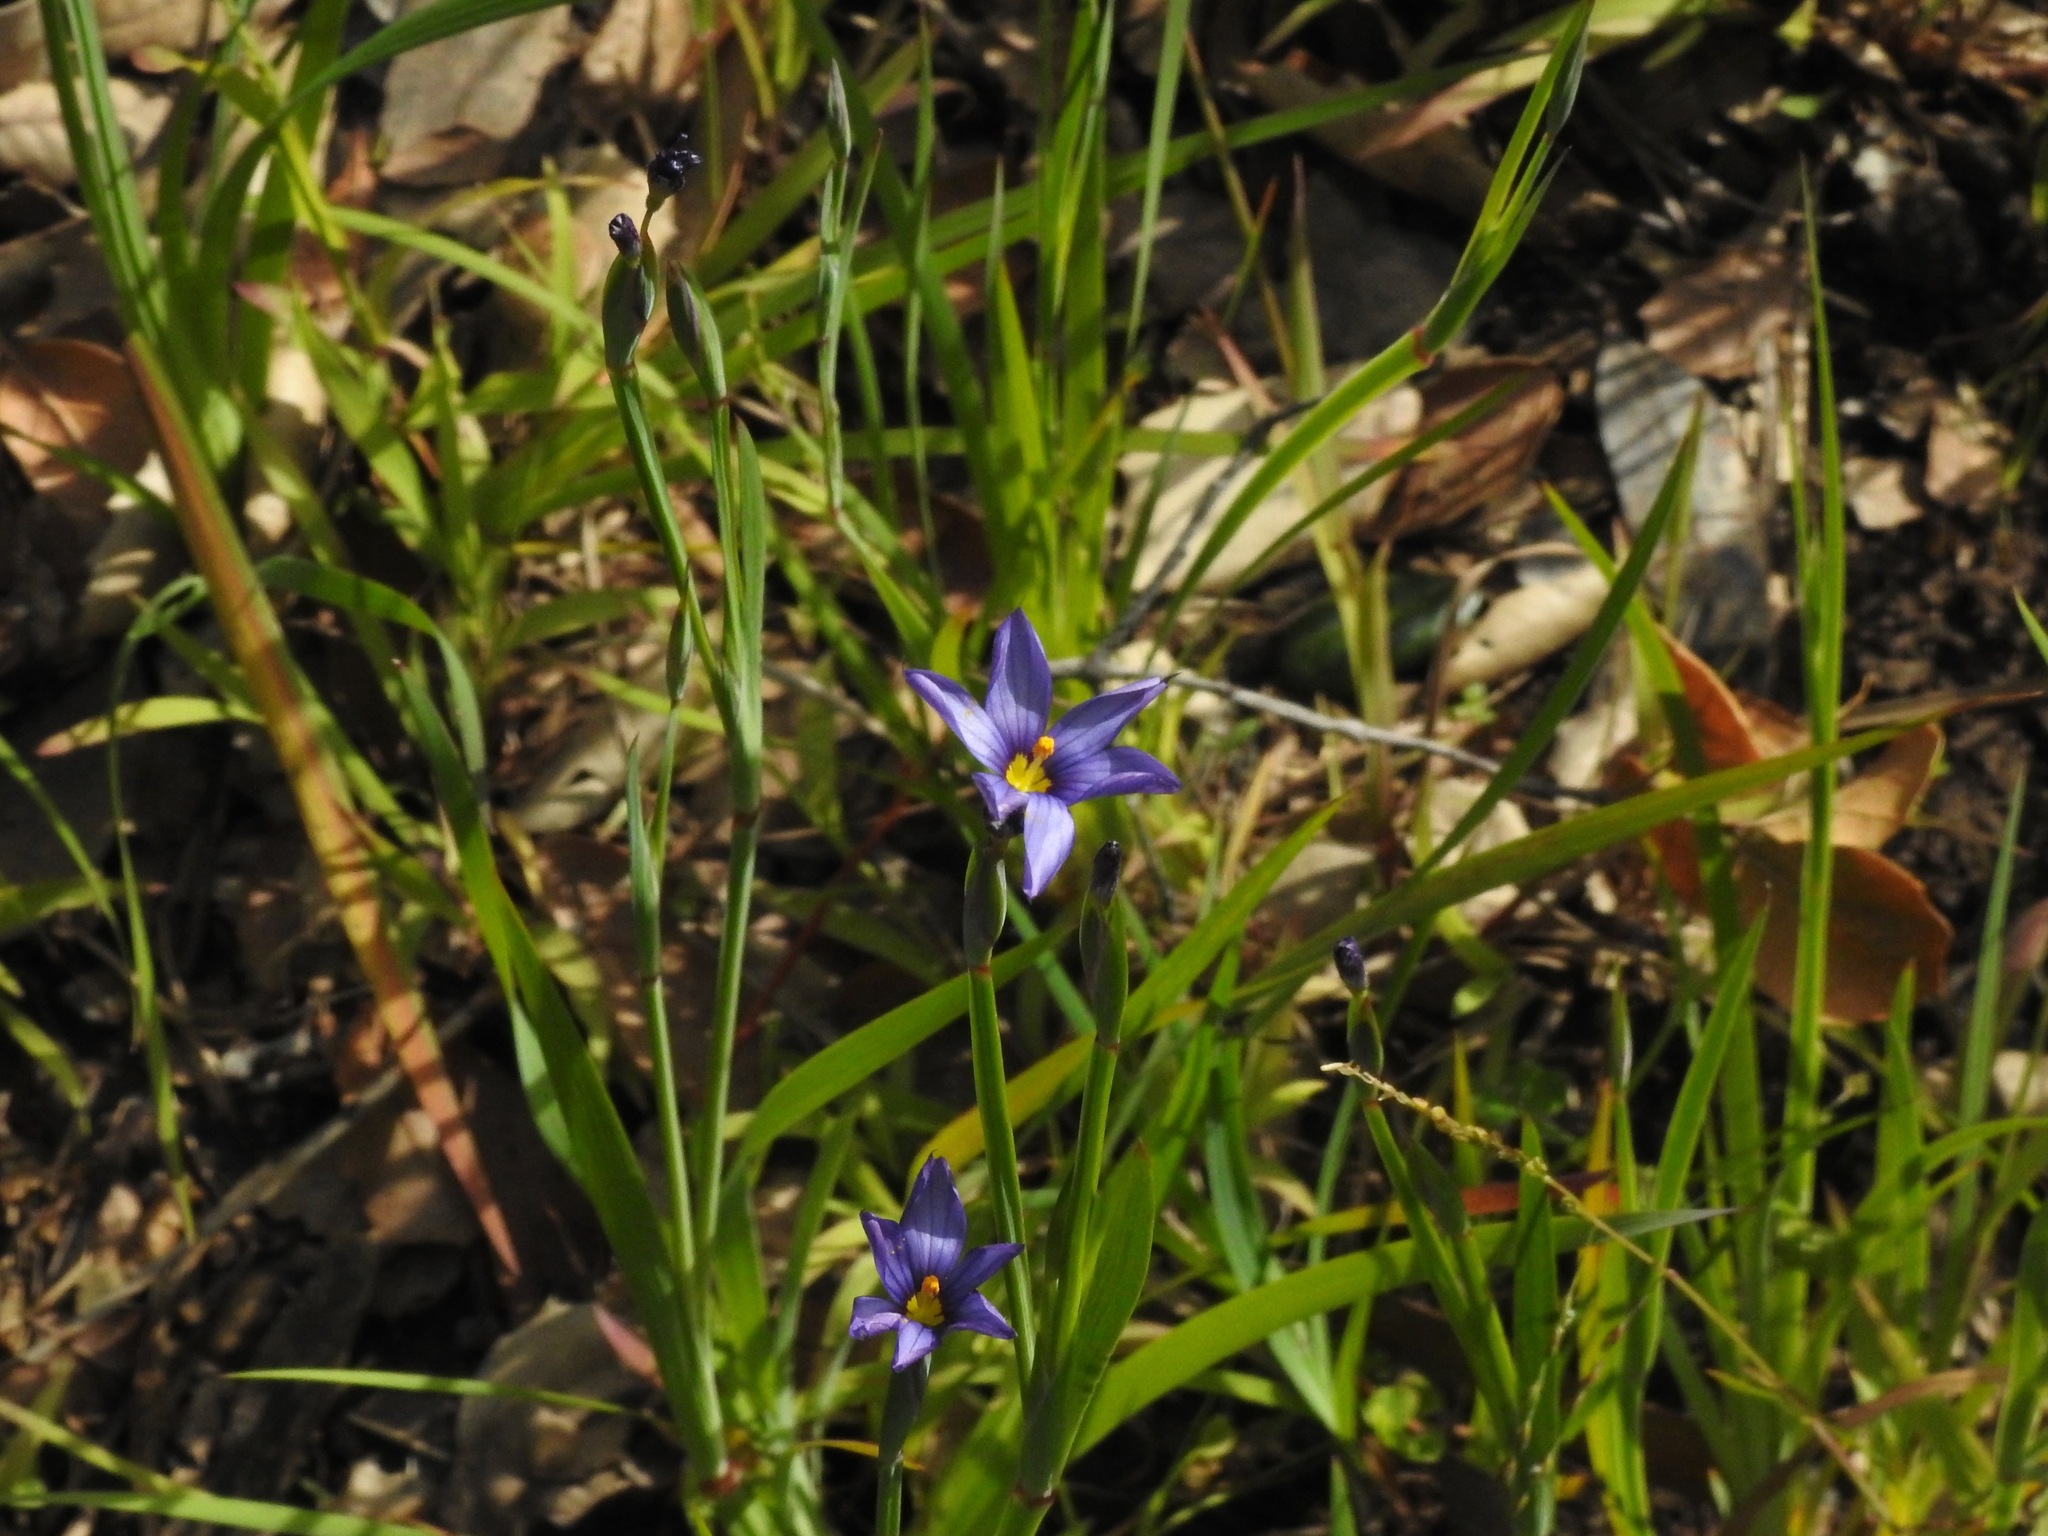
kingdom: Plantae
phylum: Tracheophyta
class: Liliopsida
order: Asparagales
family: Iridaceae
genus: Sisyrinchium
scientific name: Sisyrinchium bellum
